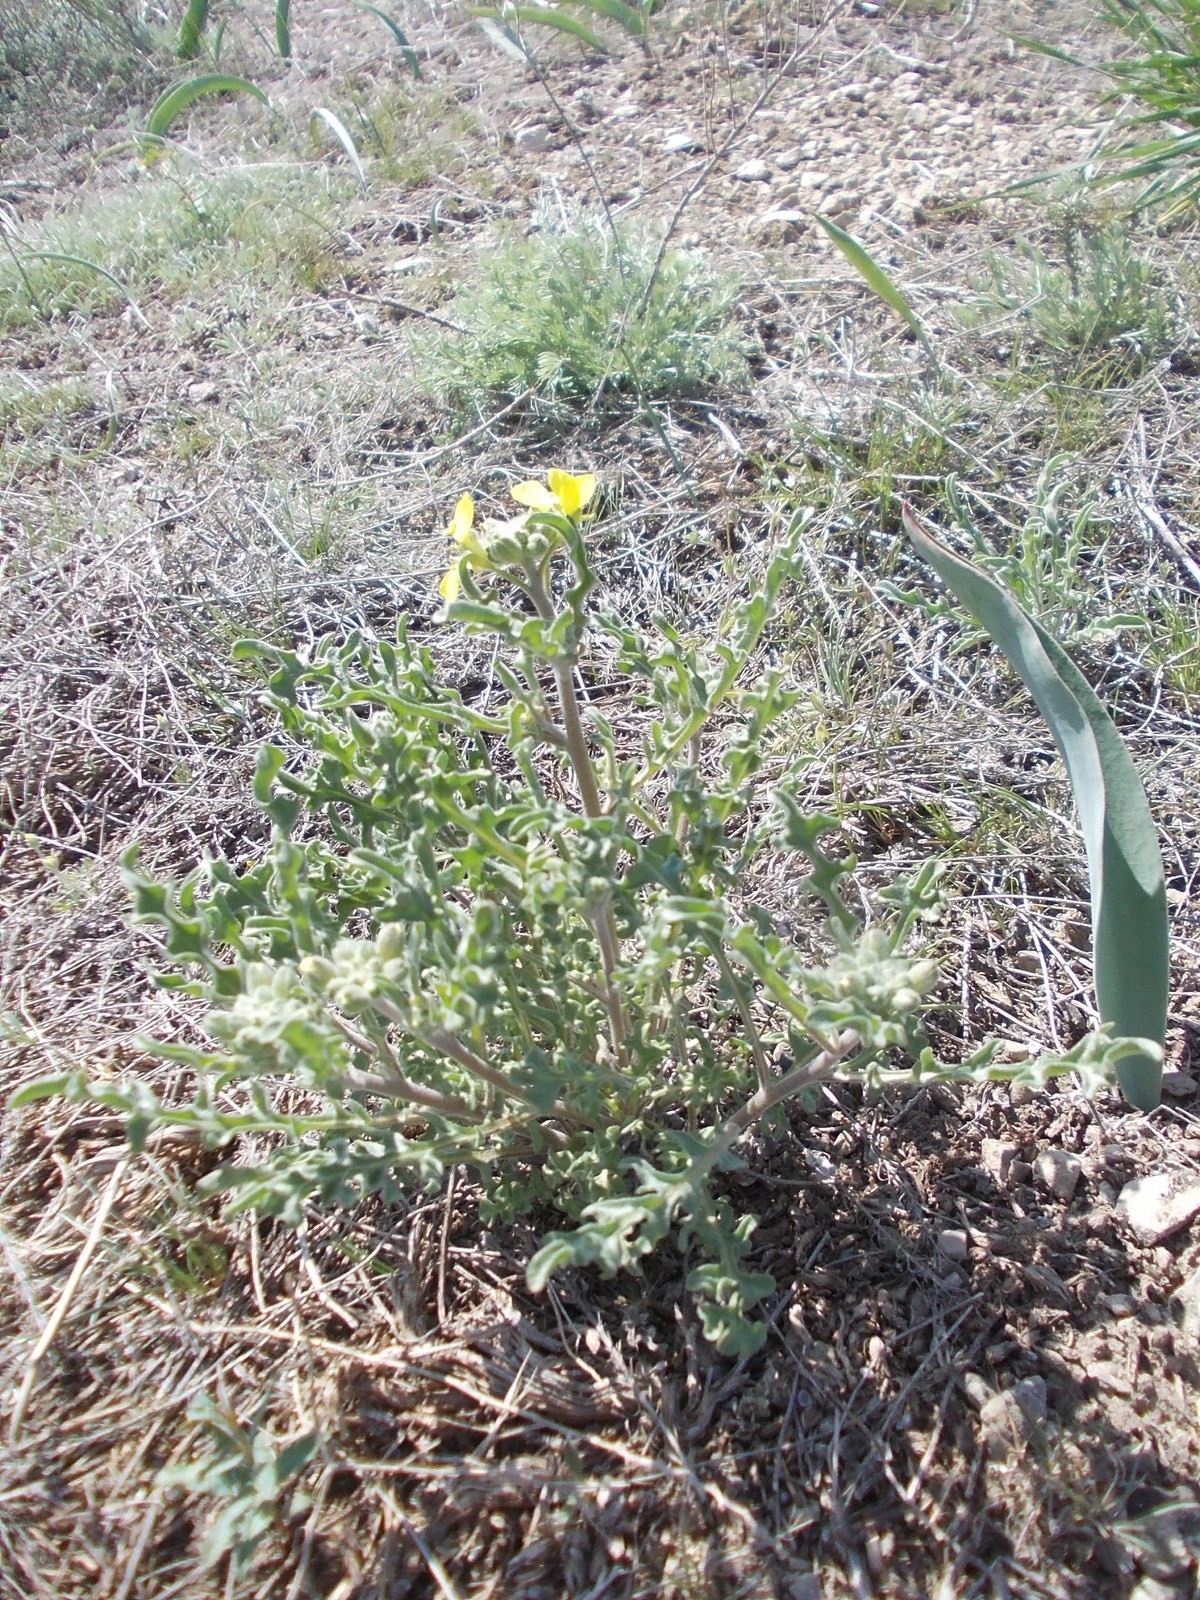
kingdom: Plantae
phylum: Tracheophyta
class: Magnoliopsida
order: Brassicales
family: Brassicaceae
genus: Sterigmostemum
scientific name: Sterigmostemum caspicum
